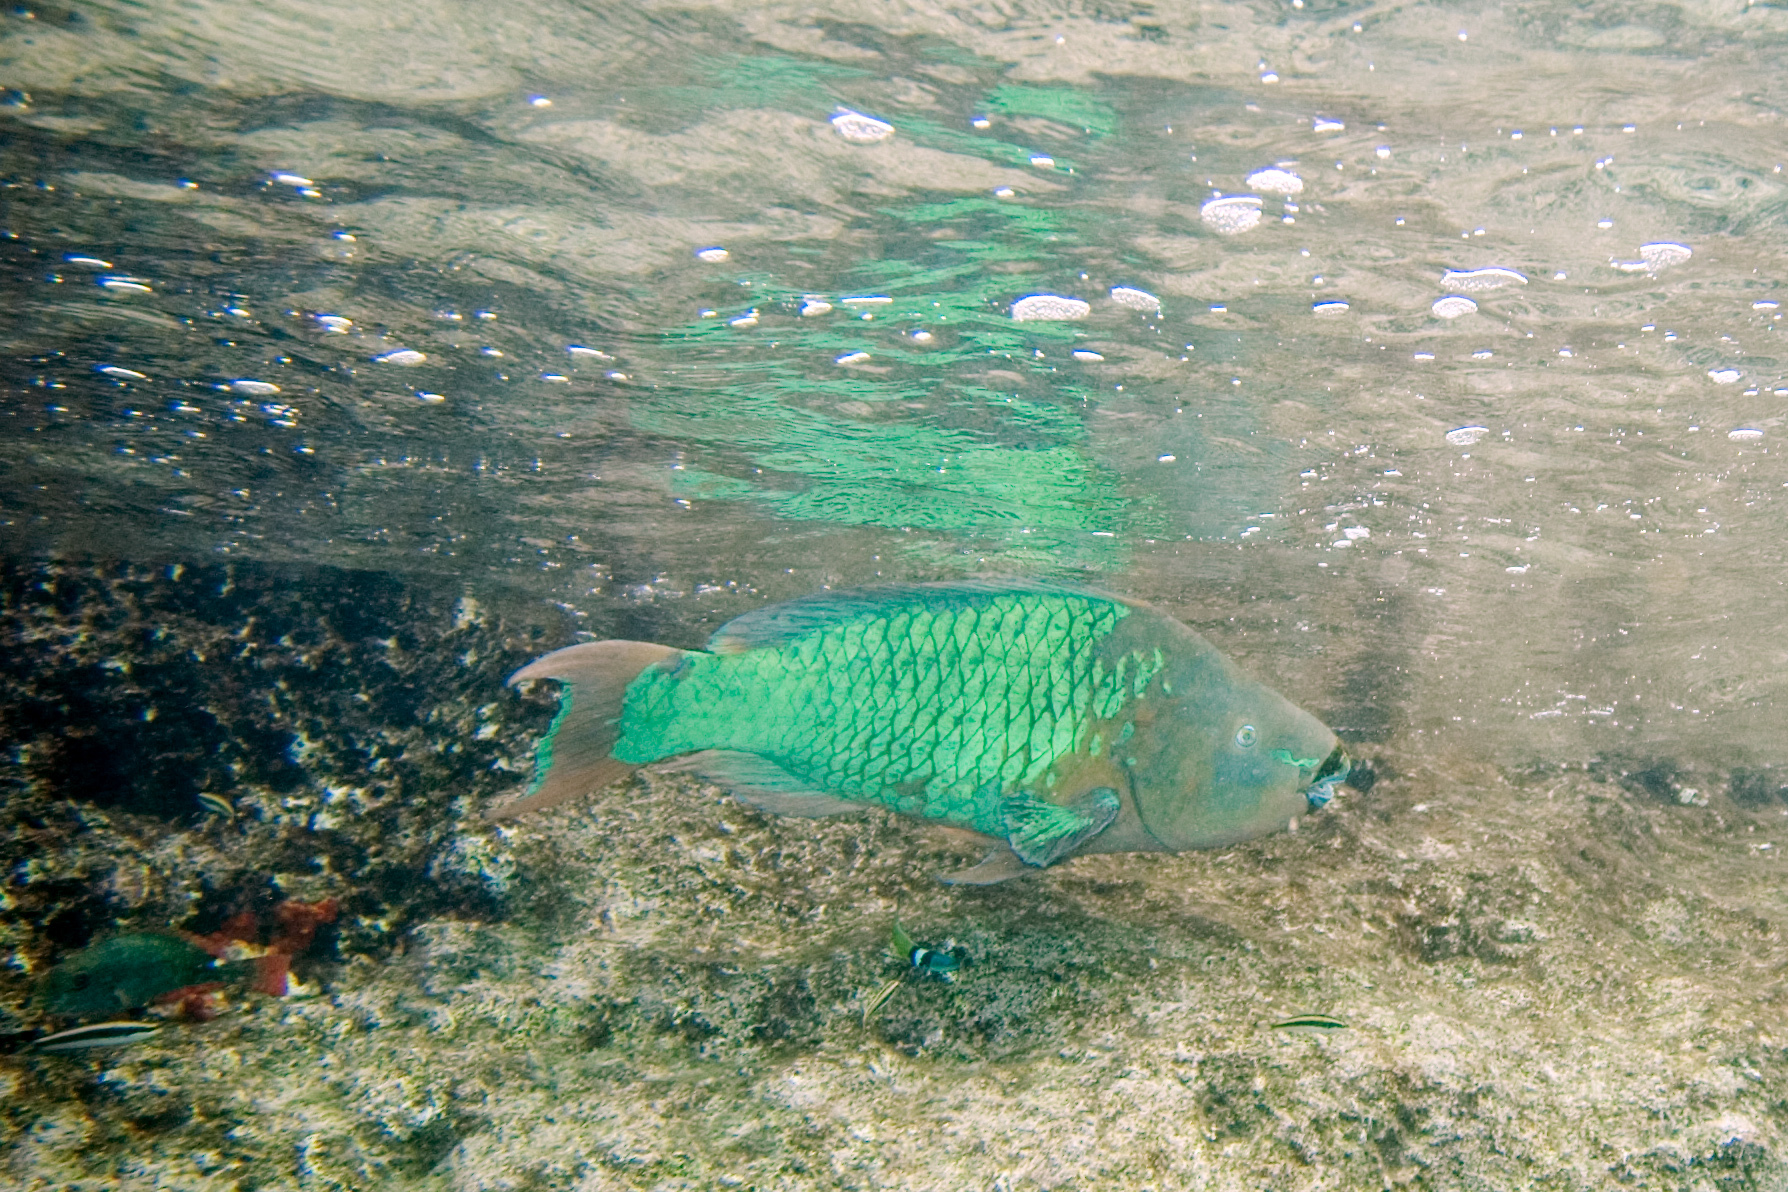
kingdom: Animalia
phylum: Chordata
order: Perciformes
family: Scaridae
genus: Scarus
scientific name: Scarus guacamaia
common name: Rainbow parrotfish
